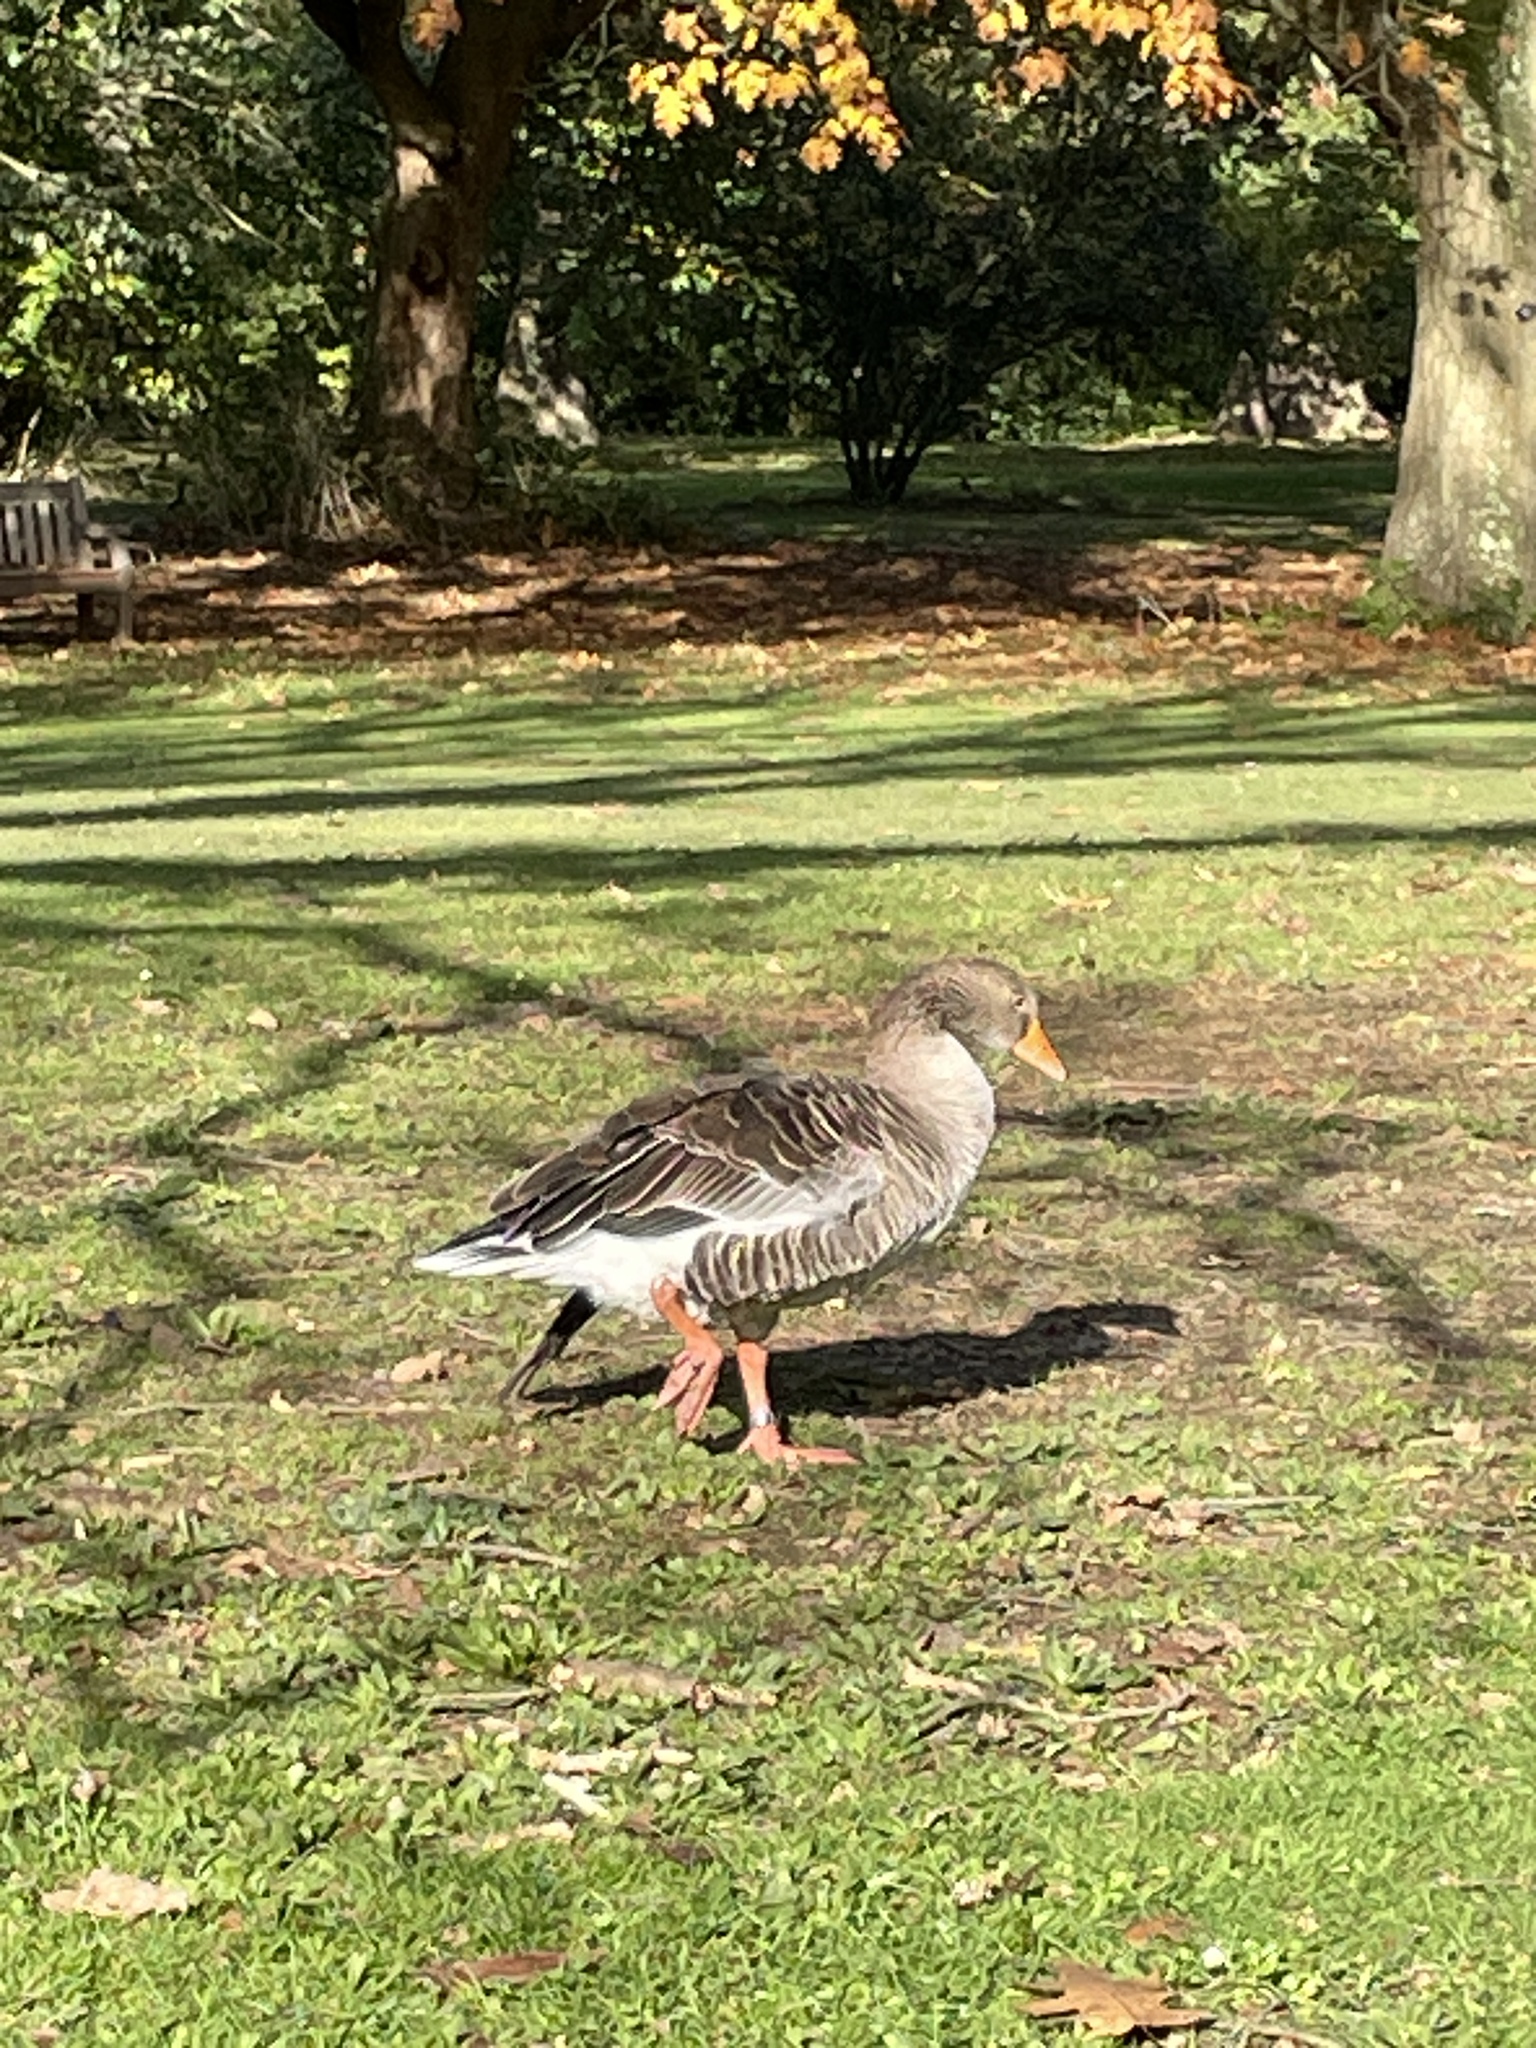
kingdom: Animalia
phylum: Chordata
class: Aves
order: Anseriformes
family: Anatidae
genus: Anser
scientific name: Anser anser
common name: Greylag goose
